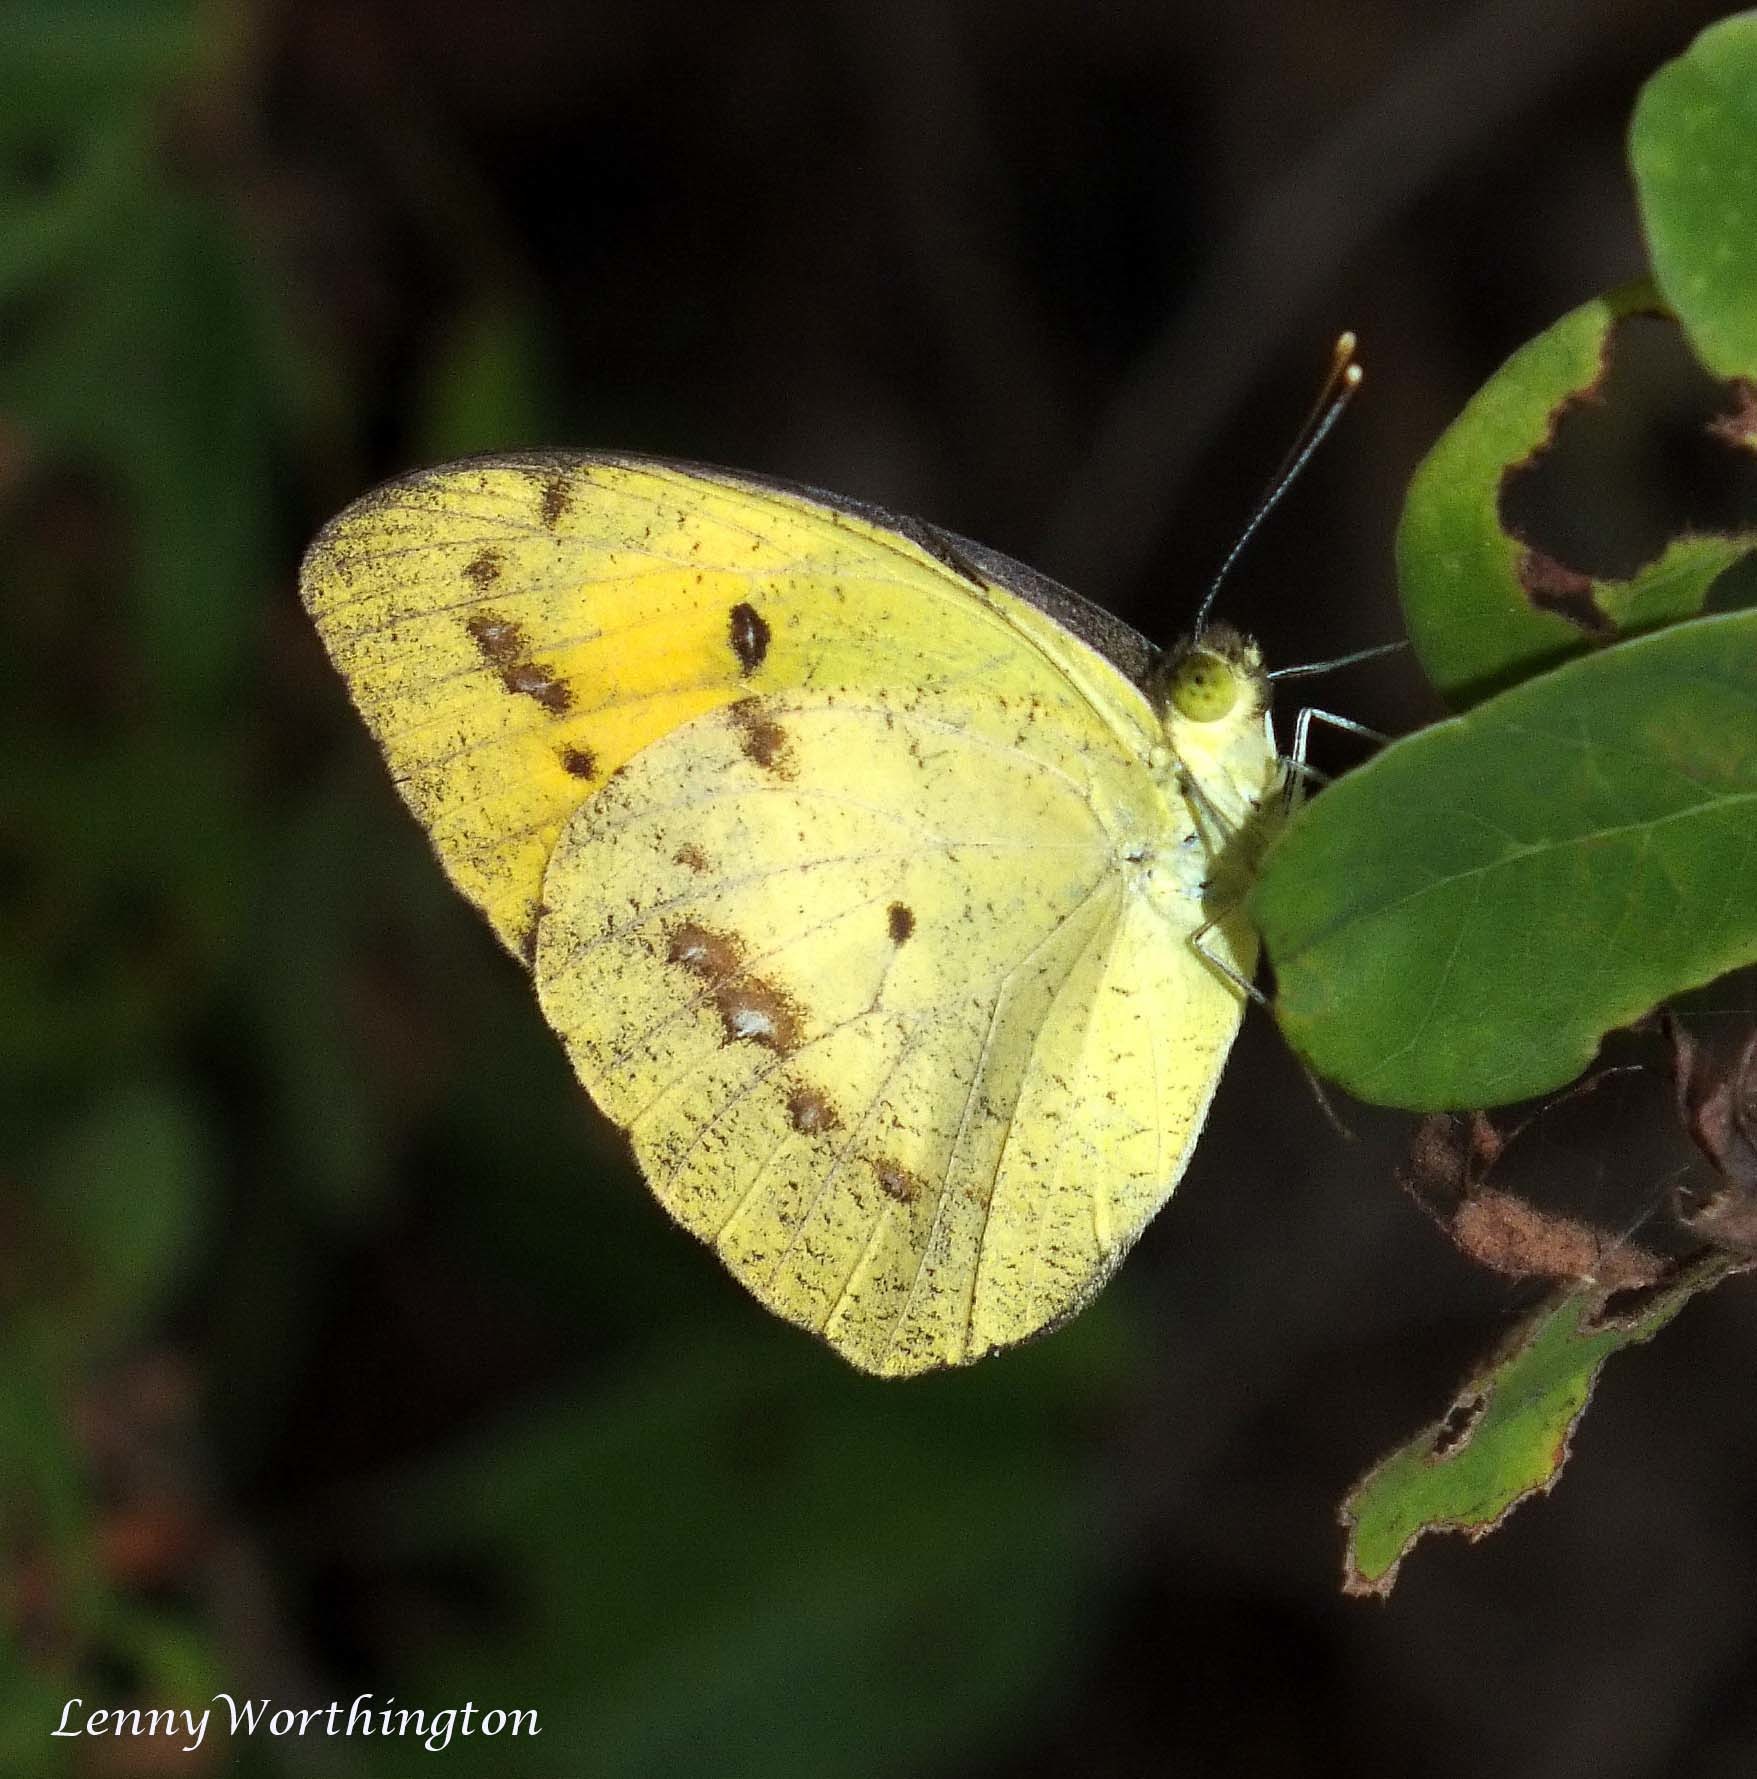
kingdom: Animalia
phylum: Arthropoda
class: Insecta
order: Lepidoptera
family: Pieridae
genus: Ixias
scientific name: Ixias pyrene
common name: Yellow orange tip
